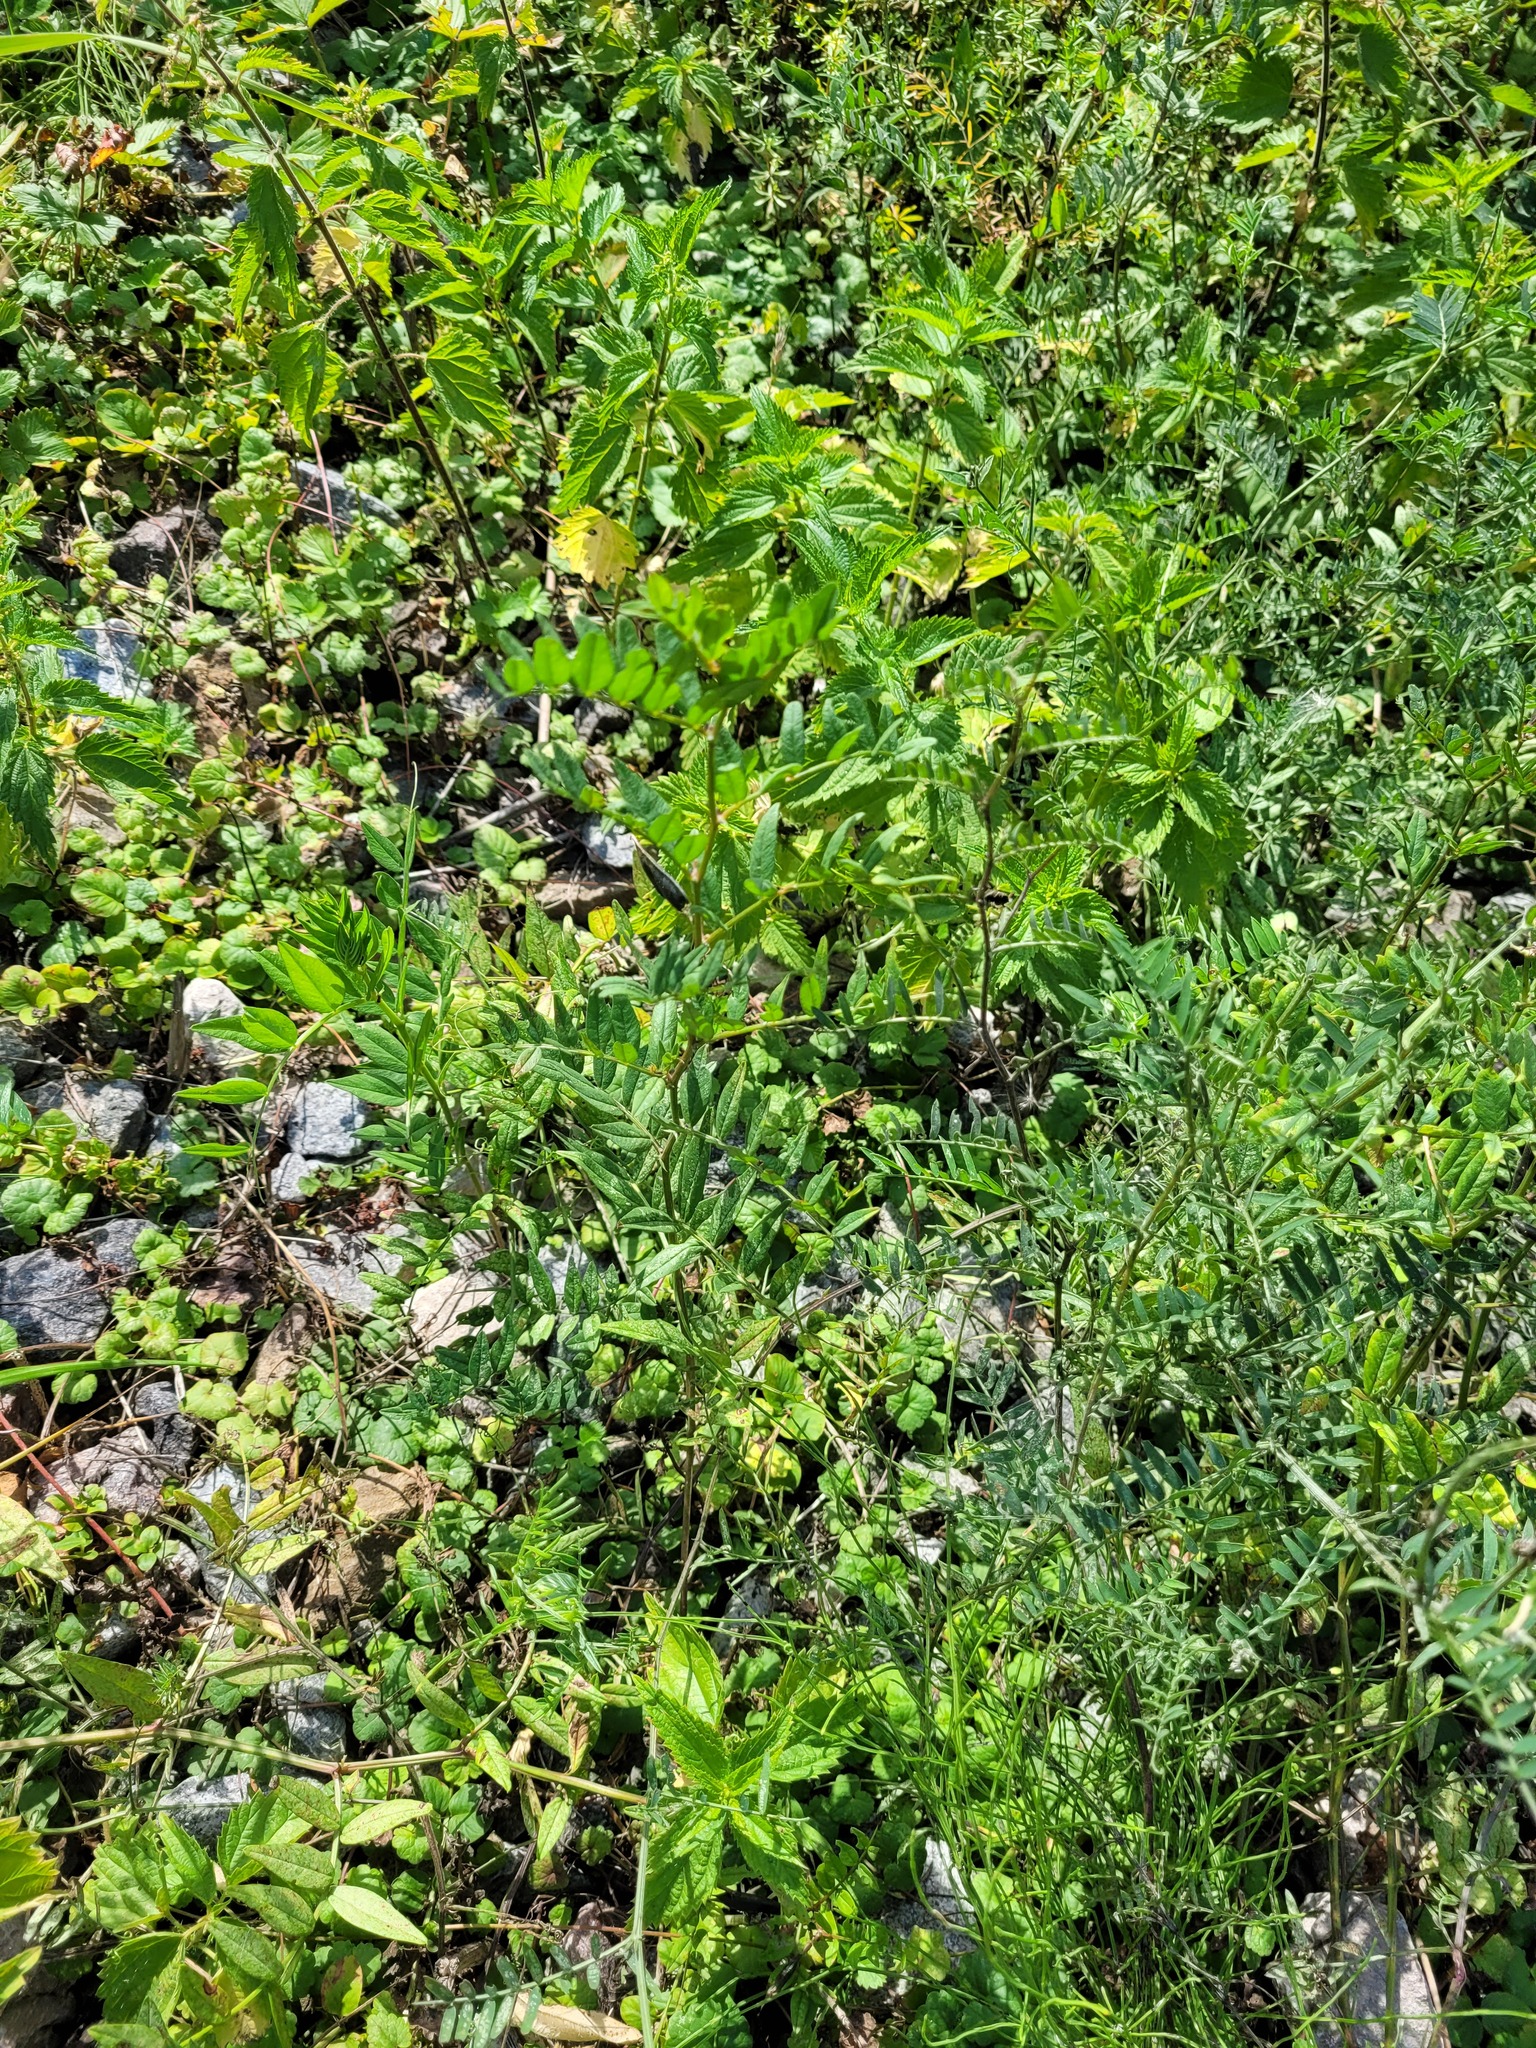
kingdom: Plantae
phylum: Tracheophyta
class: Magnoliopsida
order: Fabales
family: Fabaceae
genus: Vicia
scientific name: Vicia sepium
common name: Bush vetch
